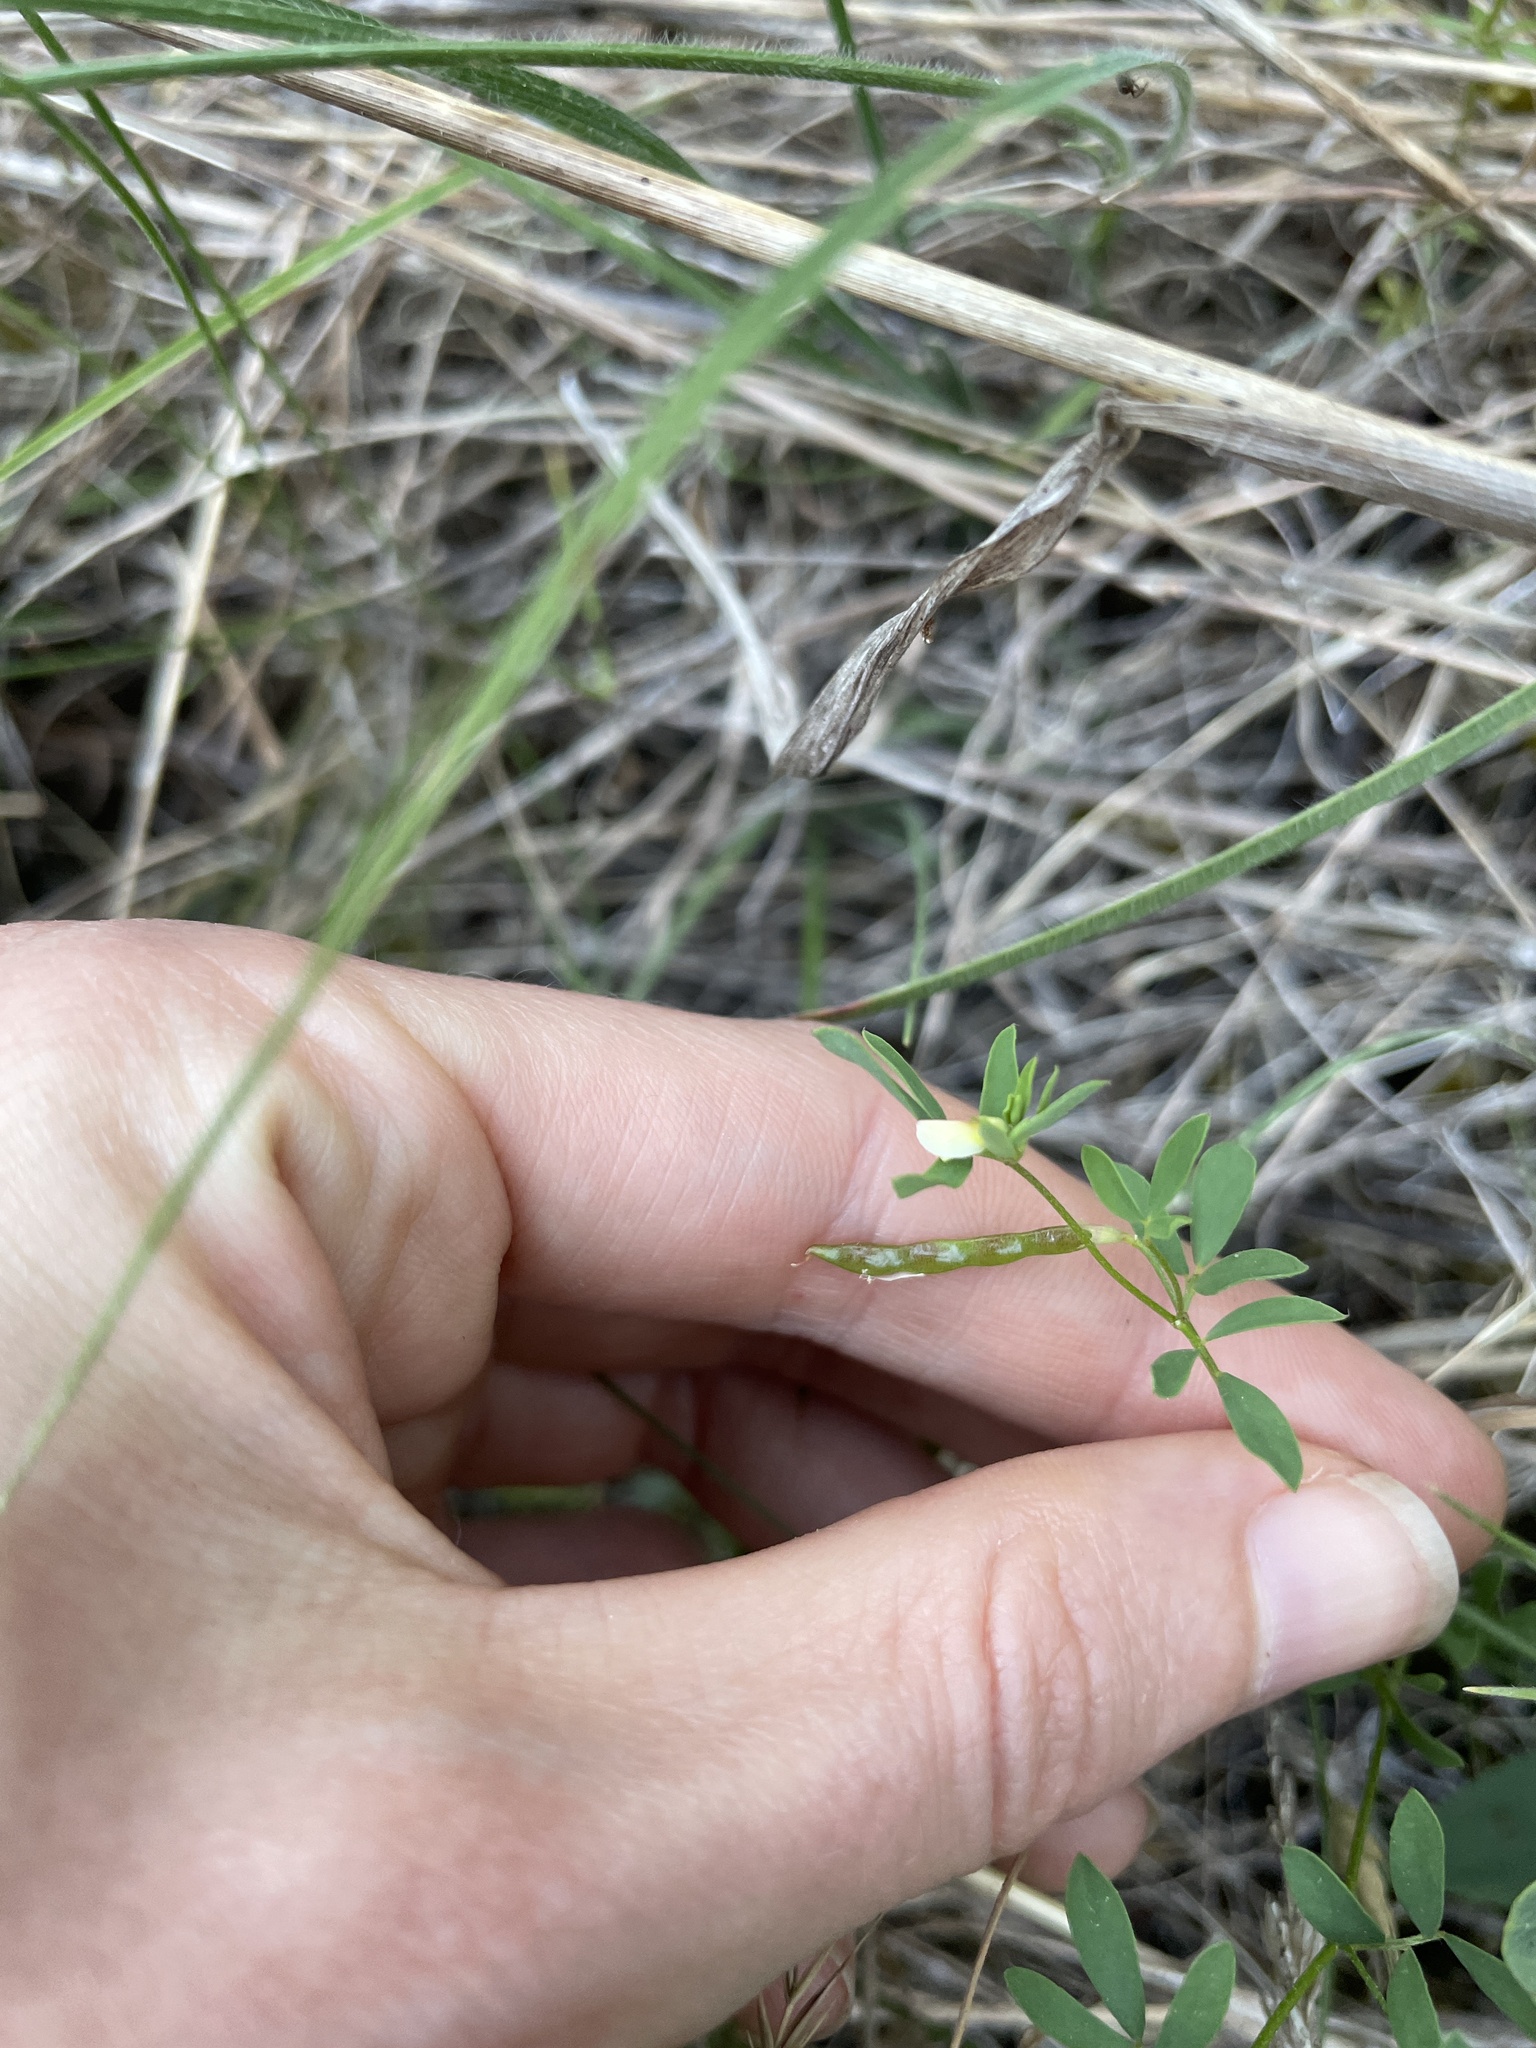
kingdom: Plantae
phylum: Tracheophyta
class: Magnoliopsida
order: Fabales
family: Fabaceae
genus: Acmispon
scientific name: Acmispon parviflorus
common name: Desert deer-vetch
